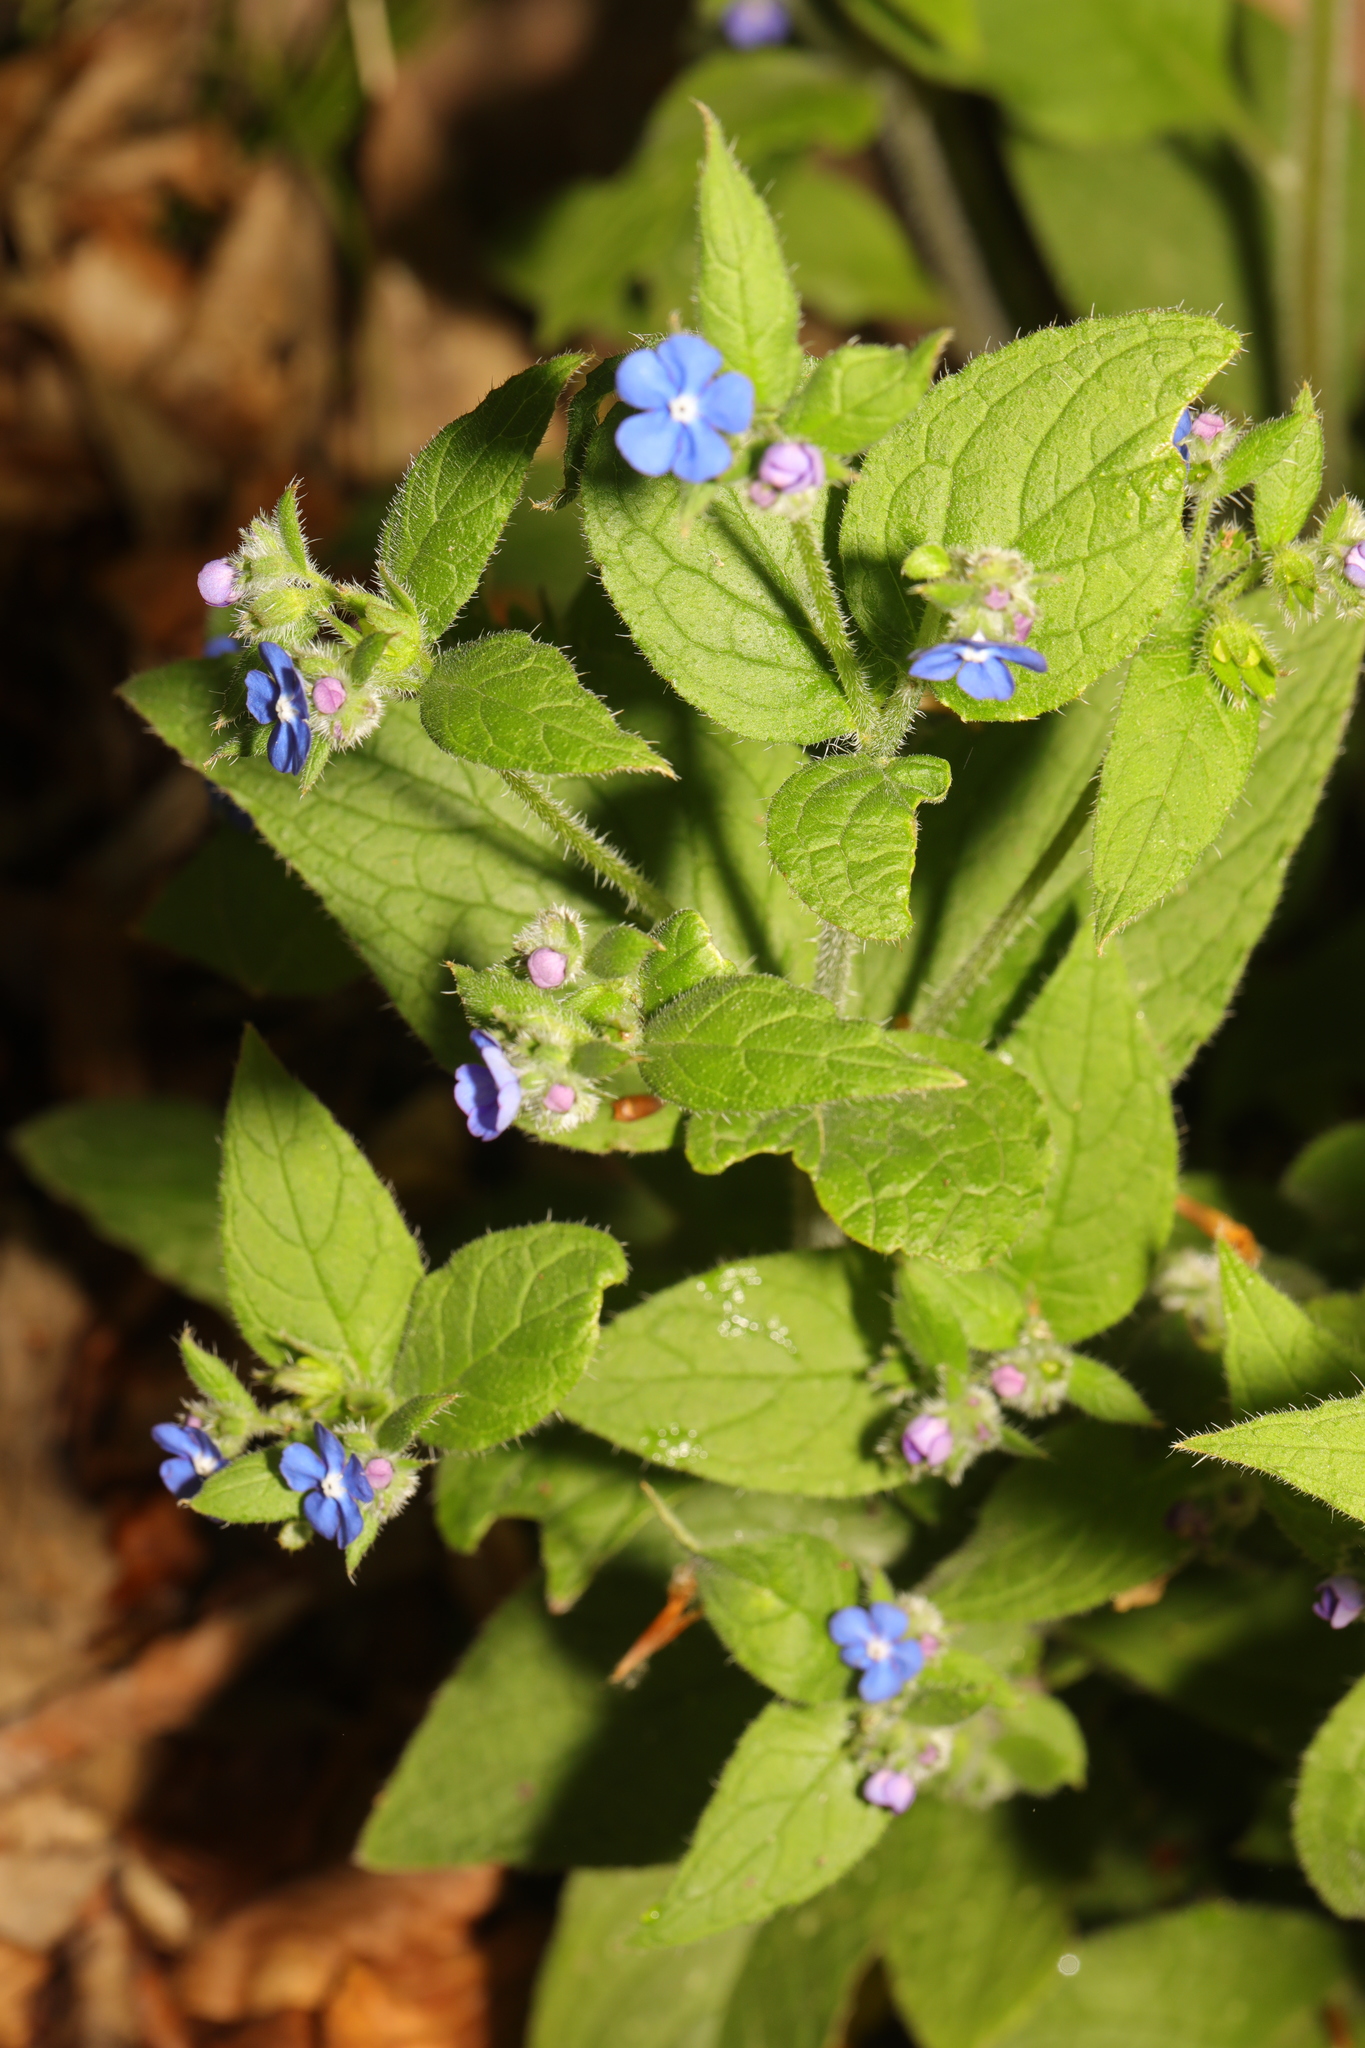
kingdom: Plantae
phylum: Tracheophyta
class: Magnoliopsida
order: Boraginales
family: Boraginaceae
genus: Pentaglottis
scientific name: Pentaglottis sempervirens
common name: Green alkanet
